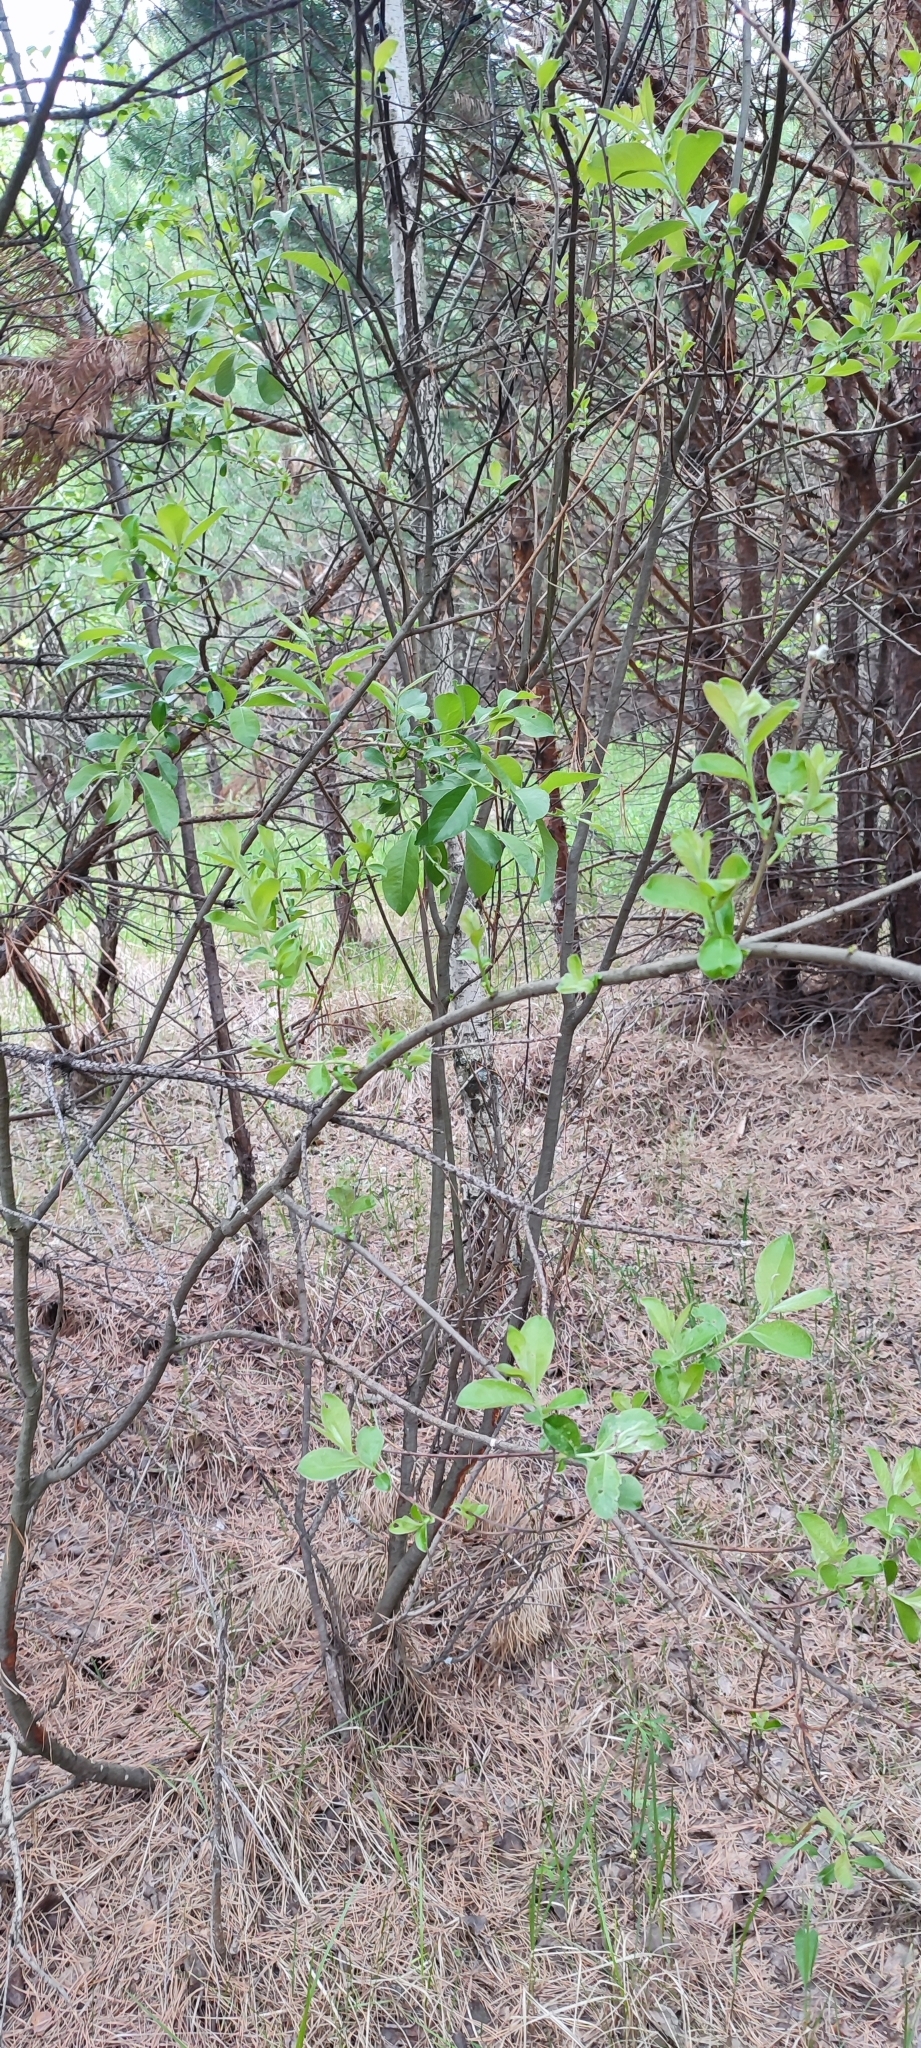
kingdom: Plantae
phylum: Tracheophyta
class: Magnoliopsida
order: Malpighiales
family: Salicaceae
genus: Salix
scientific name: Salix cinerea
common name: Common sallow
